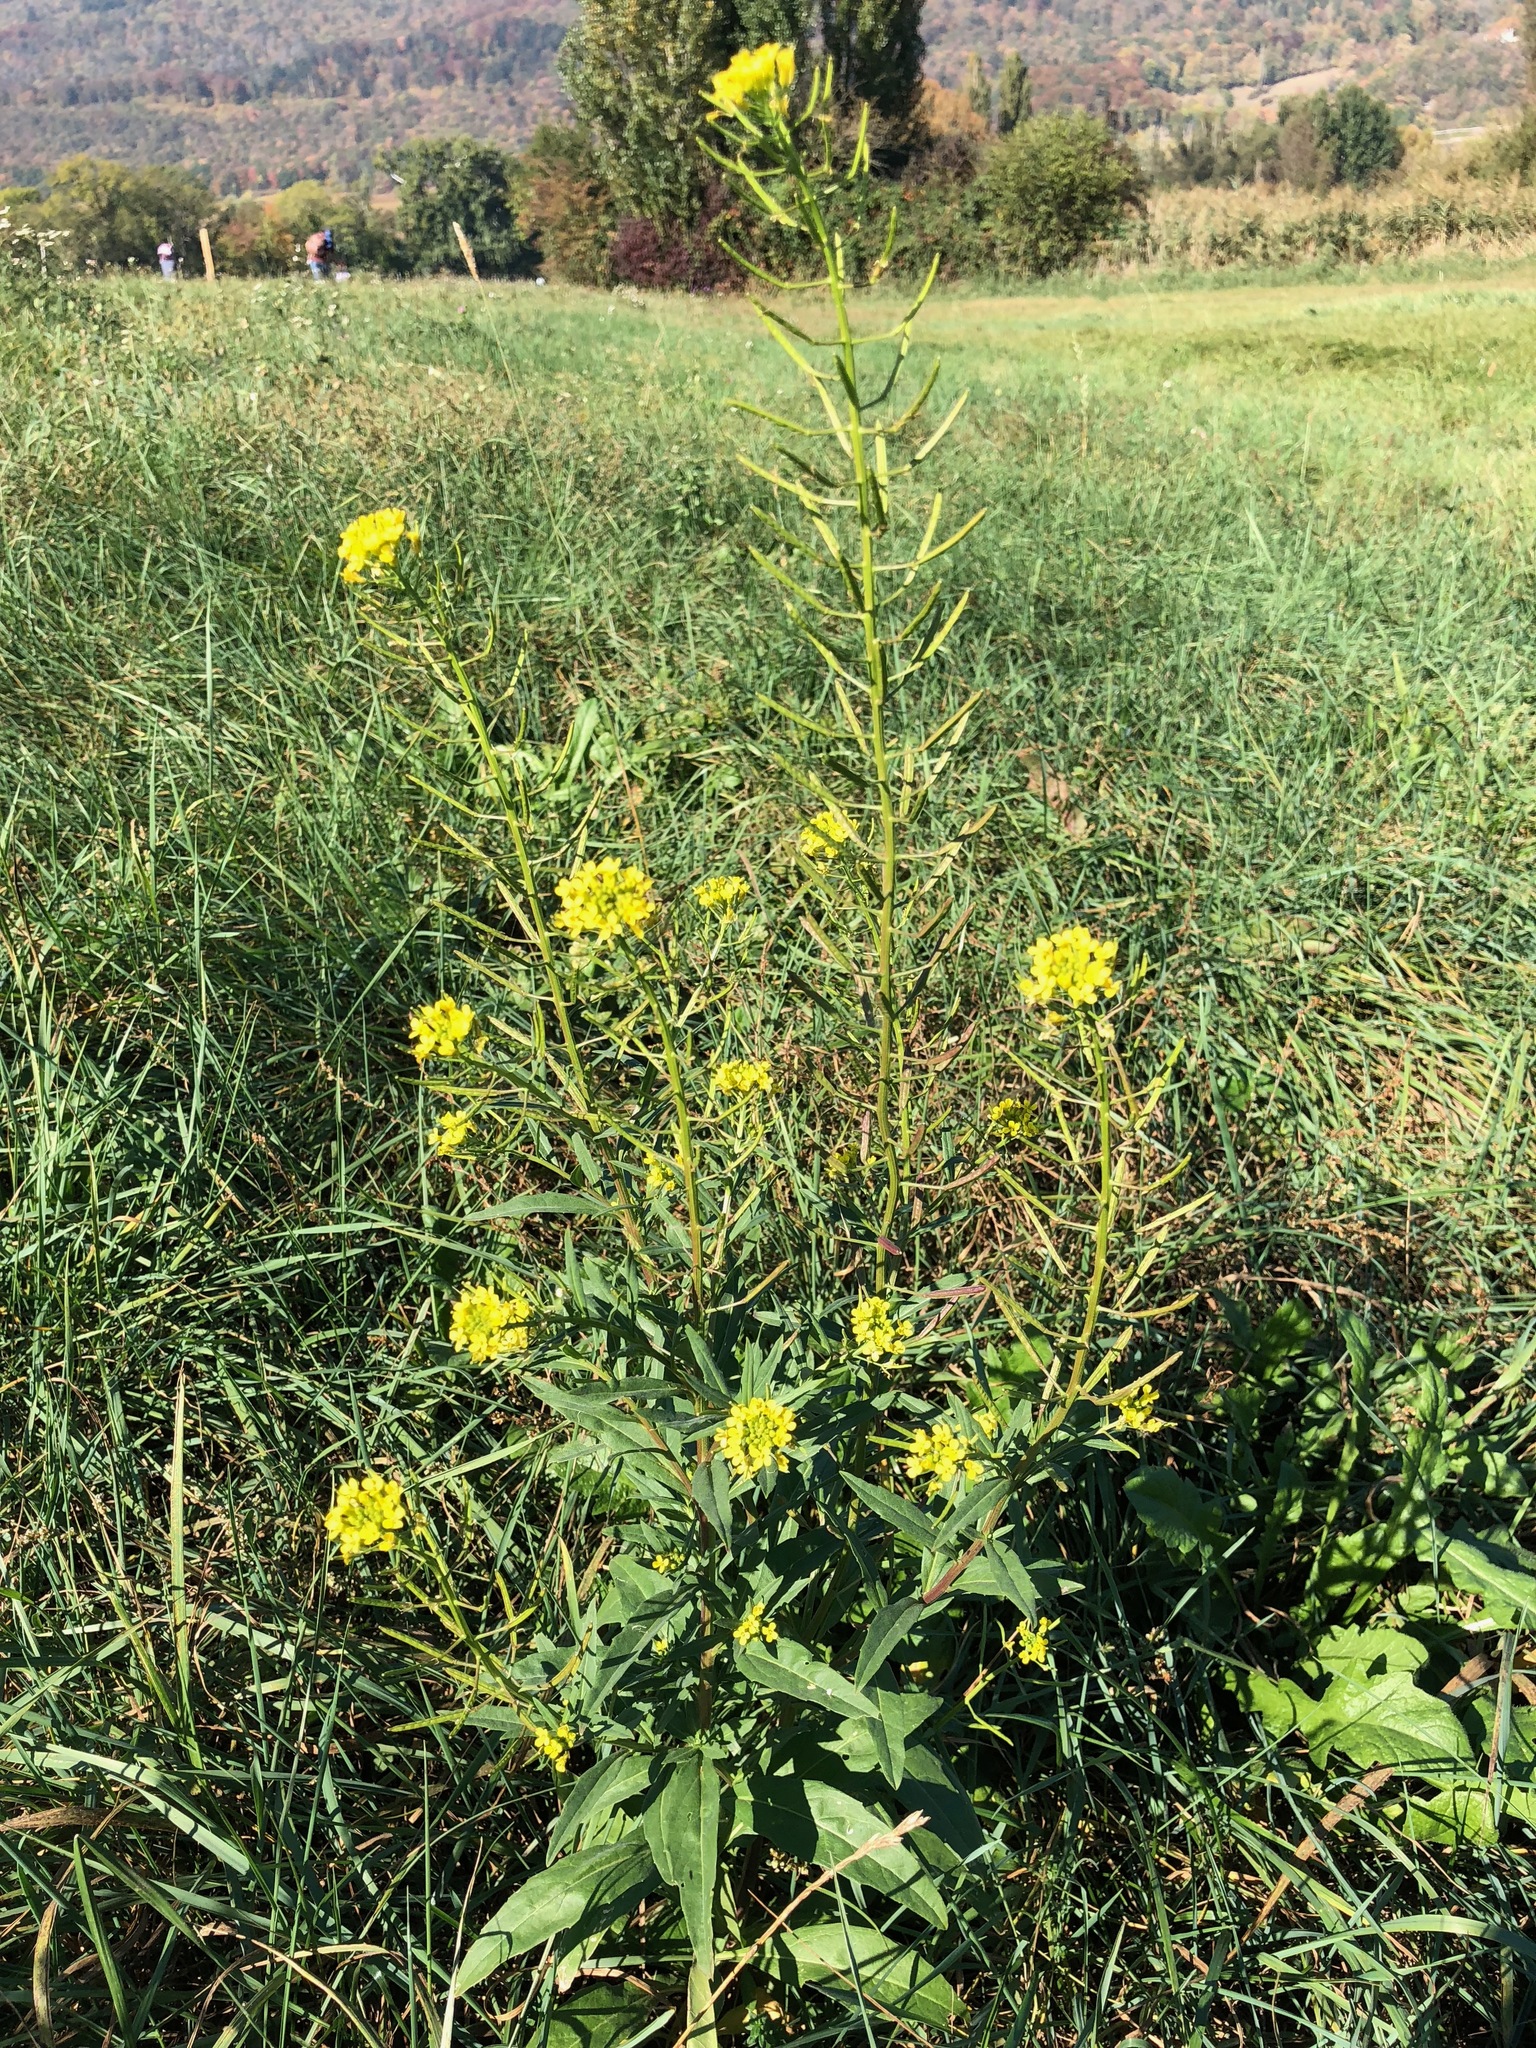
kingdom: Plantae
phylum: Tracheophyta
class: Magnoliopsida
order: Brassicales
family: Brassicaceae
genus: Erysimum
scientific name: Erysimum cheiranthoides
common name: Treacle mustard
